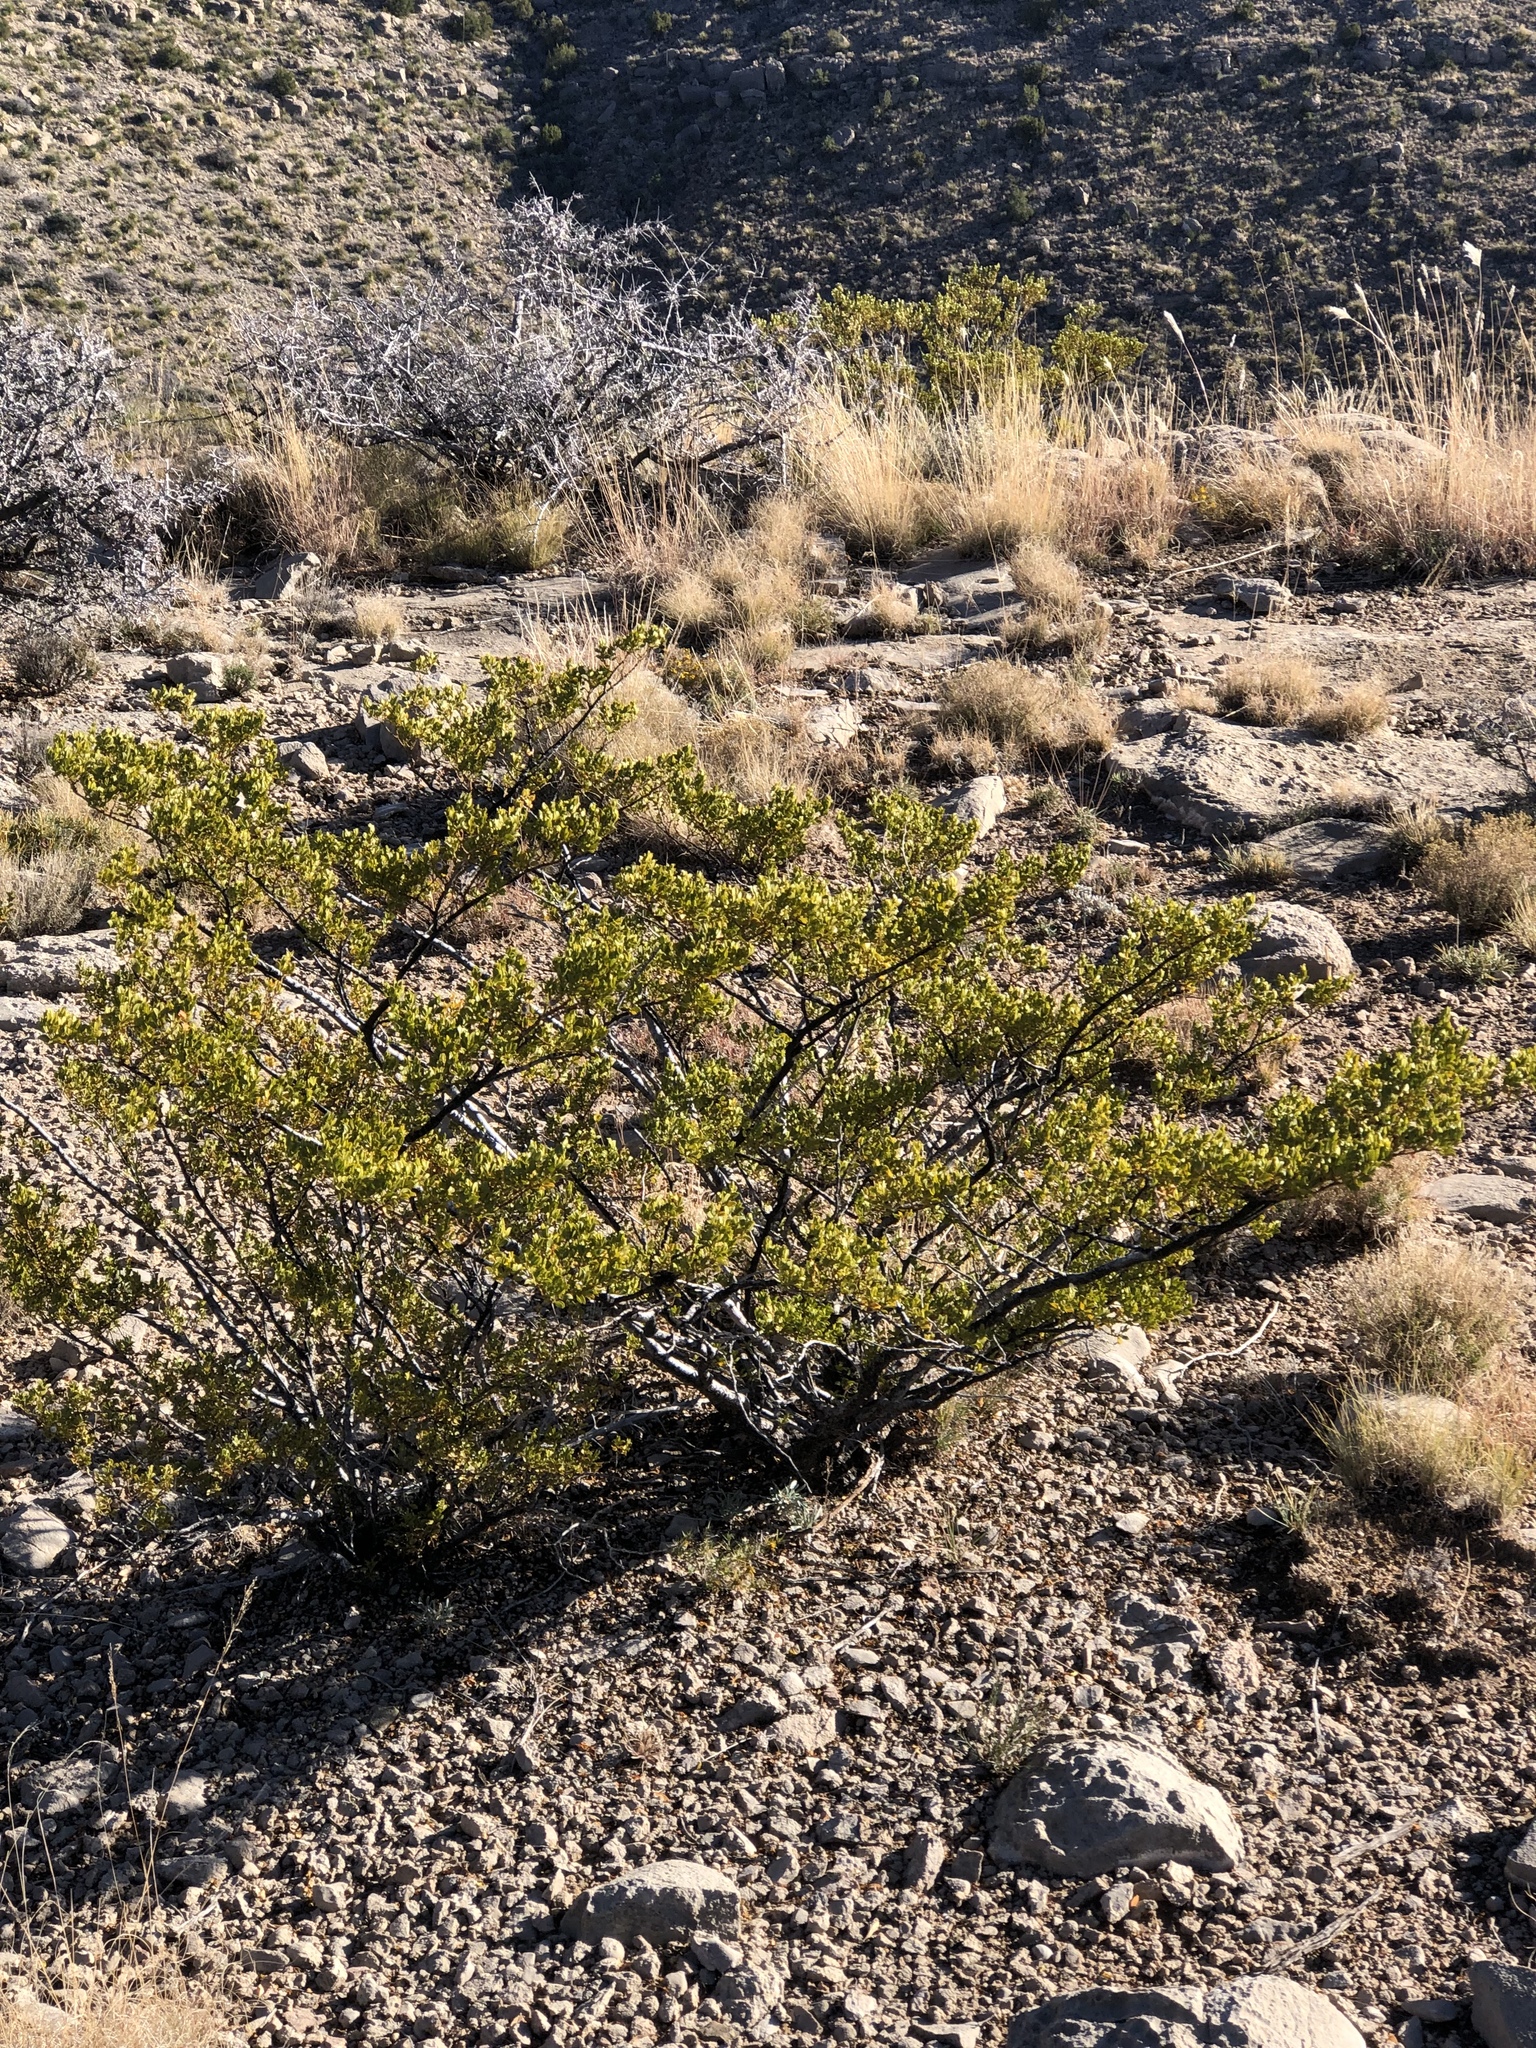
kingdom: Plantae
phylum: Tracheophyta
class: Magnoliopsida
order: Zygophyllales
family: Zygophyllaceae
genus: Larrea
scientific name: Larrea tridentata
